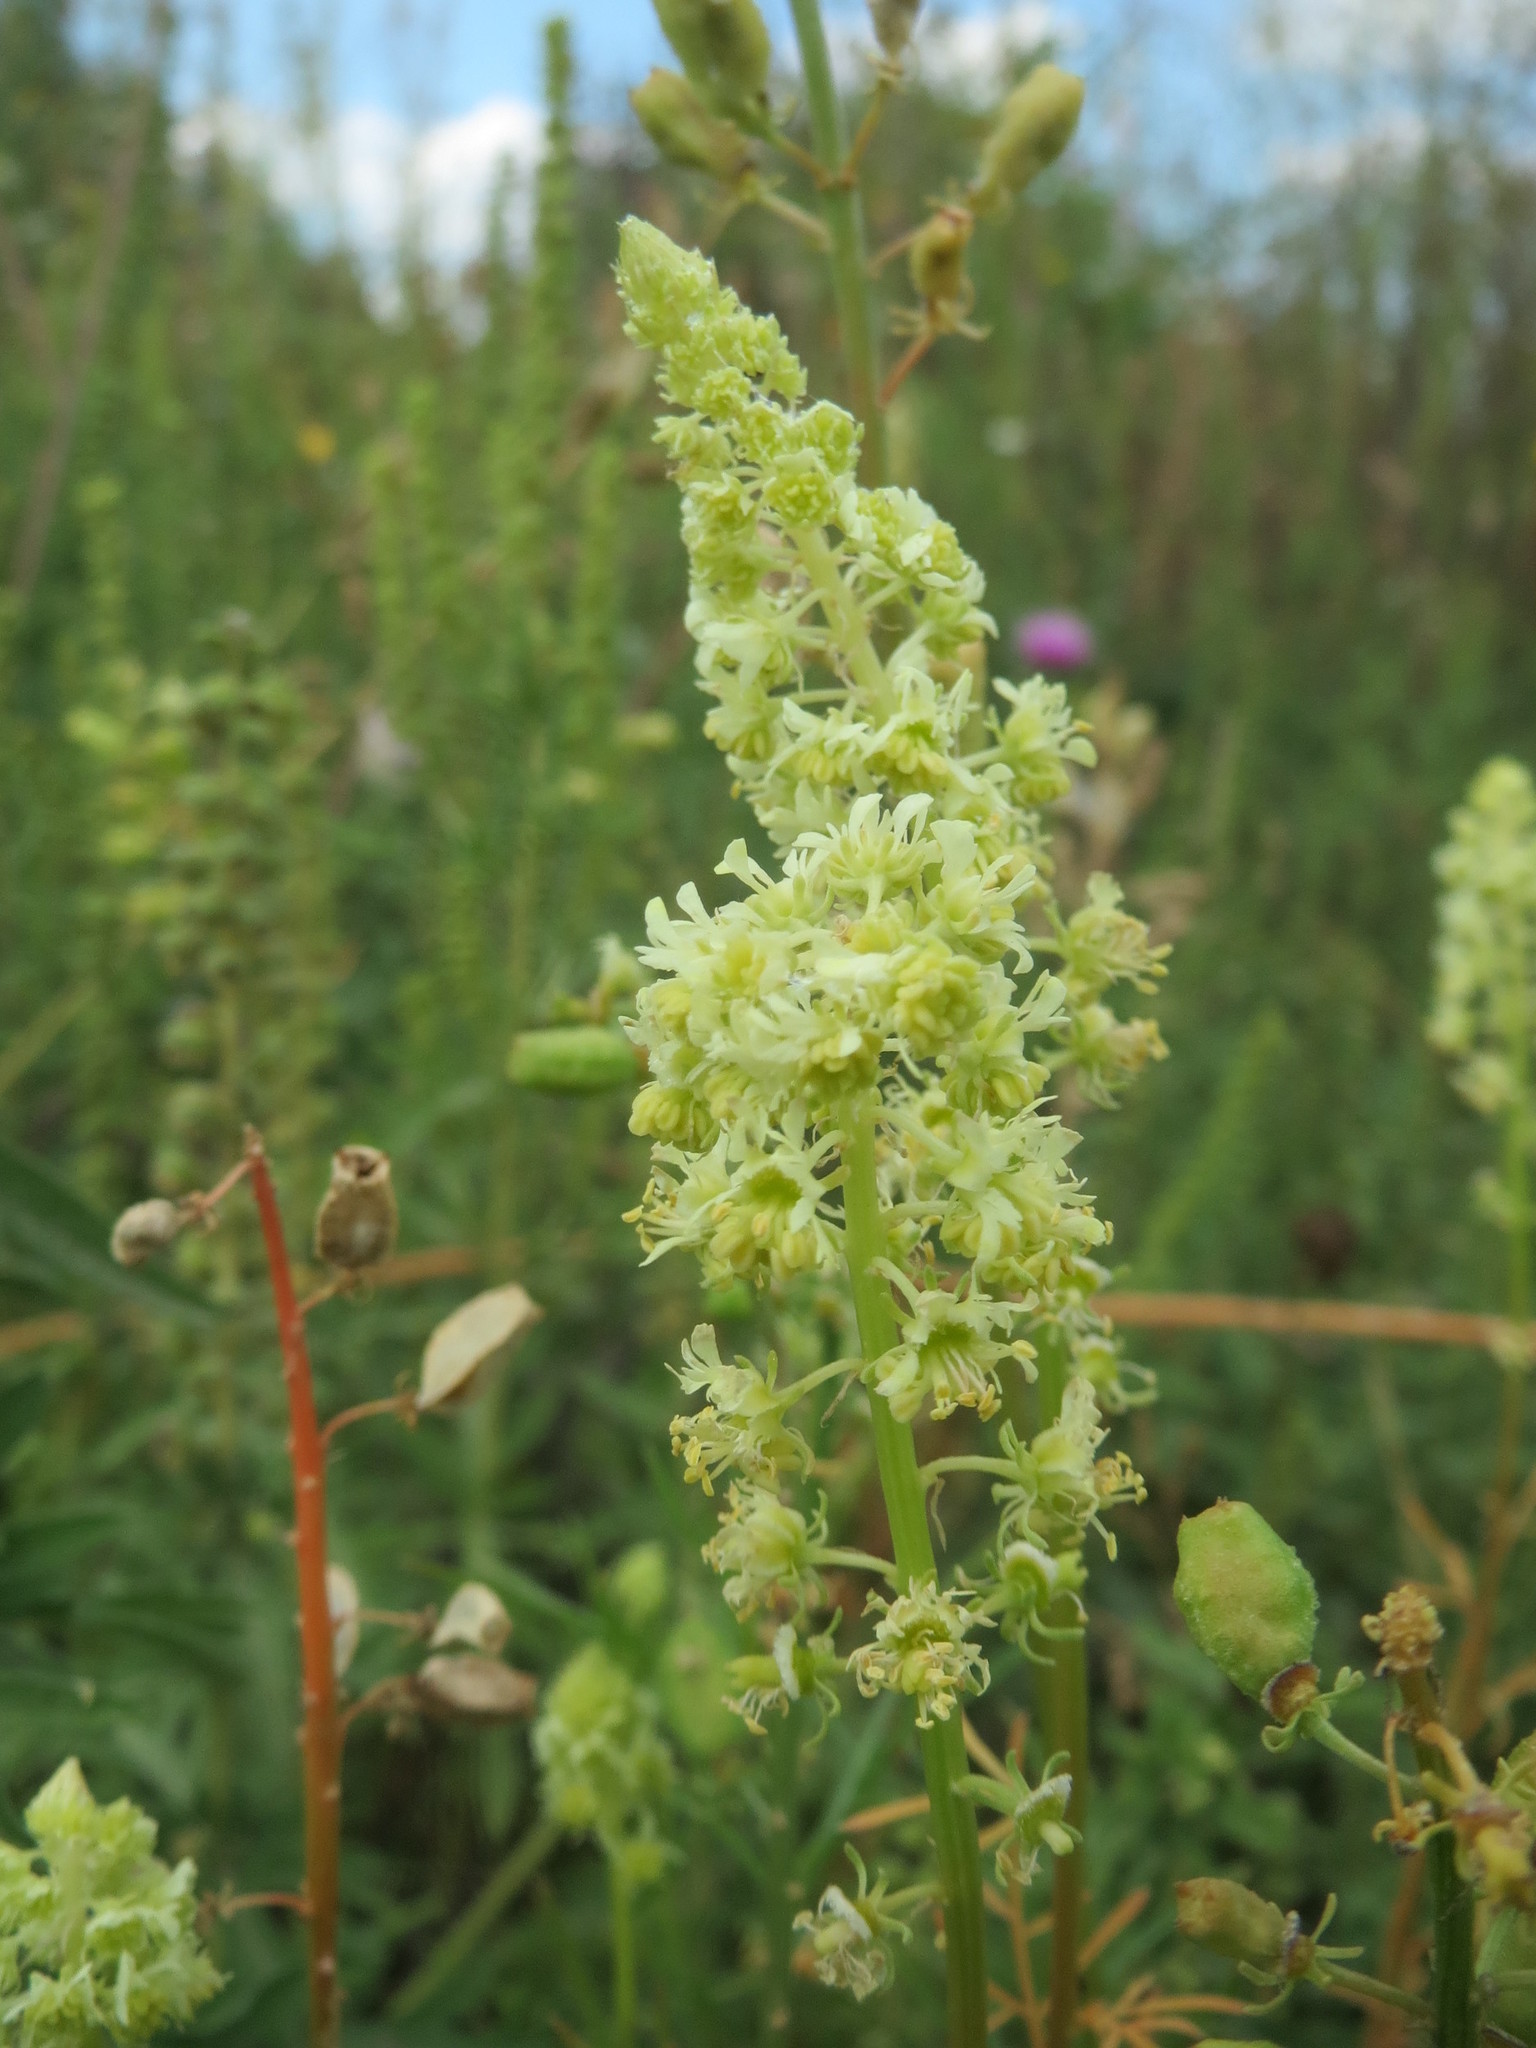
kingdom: Plantae
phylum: Tracheophyta
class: Magnoliopsida
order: Brassicales
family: Resedaceae
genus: Reseda
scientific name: Reseda lutea
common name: Wild mignonette
